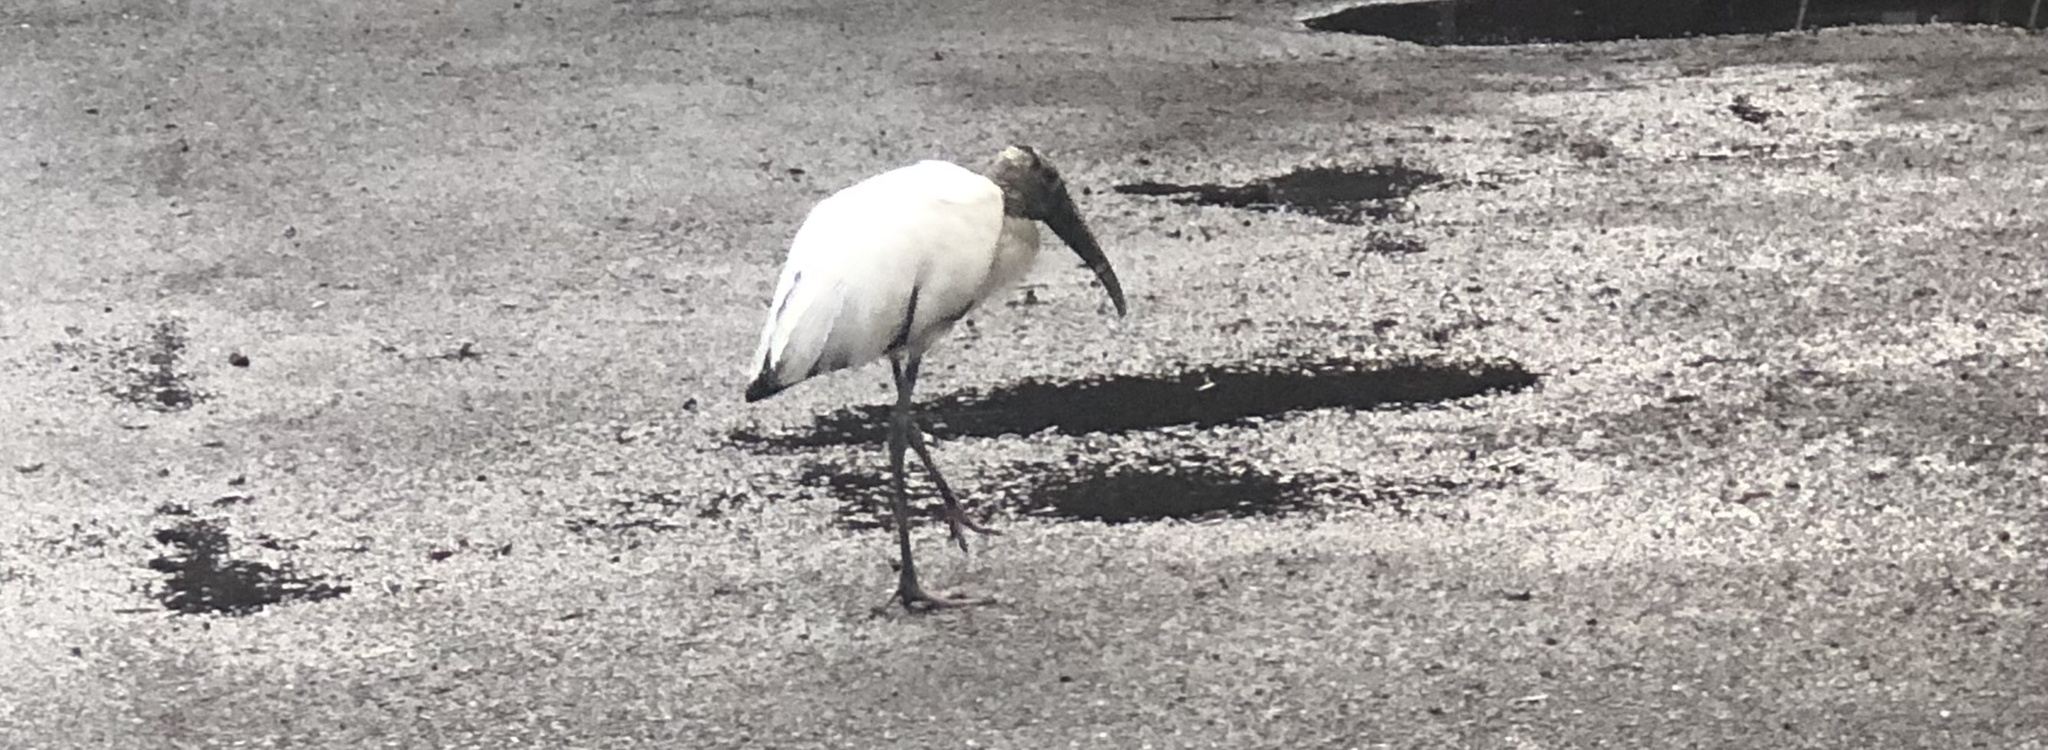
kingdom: Animalia
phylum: Chordata
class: Aves
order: Ciconiiformes
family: Ciconiidae
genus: Mycteria
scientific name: Mycteria americana
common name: Wood stork
